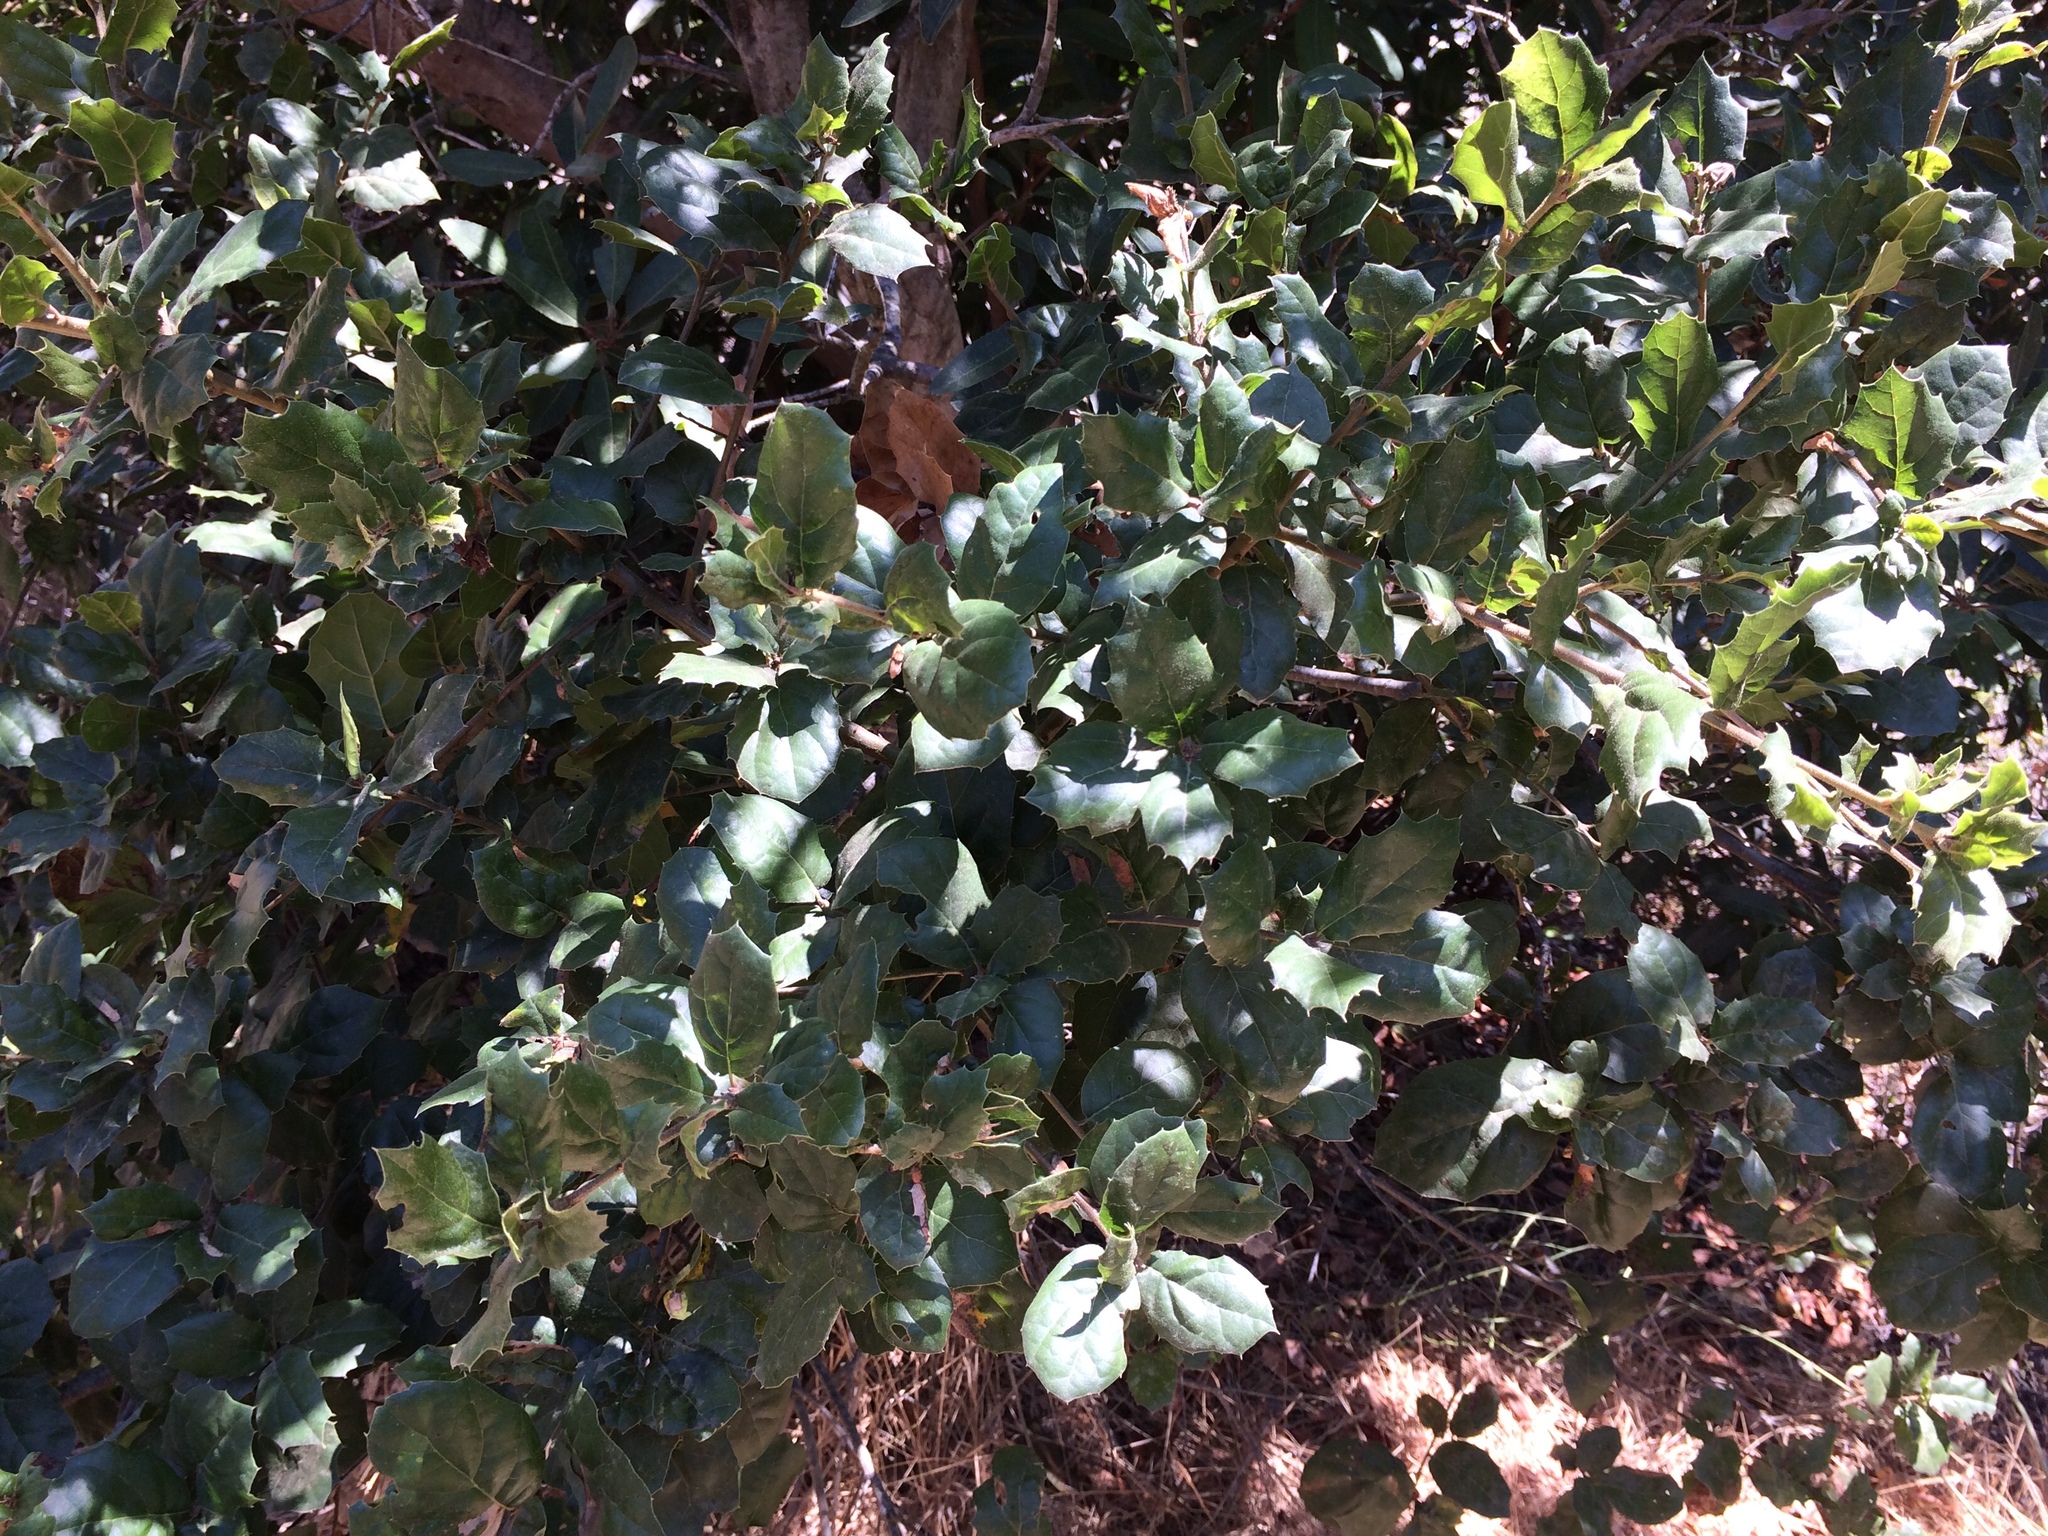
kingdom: Plantae
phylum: Tracheophyta
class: Magnoliopsida
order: Fagales
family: Fagaceae
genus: Quercus
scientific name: Quercus agrifolia
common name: California live oak
